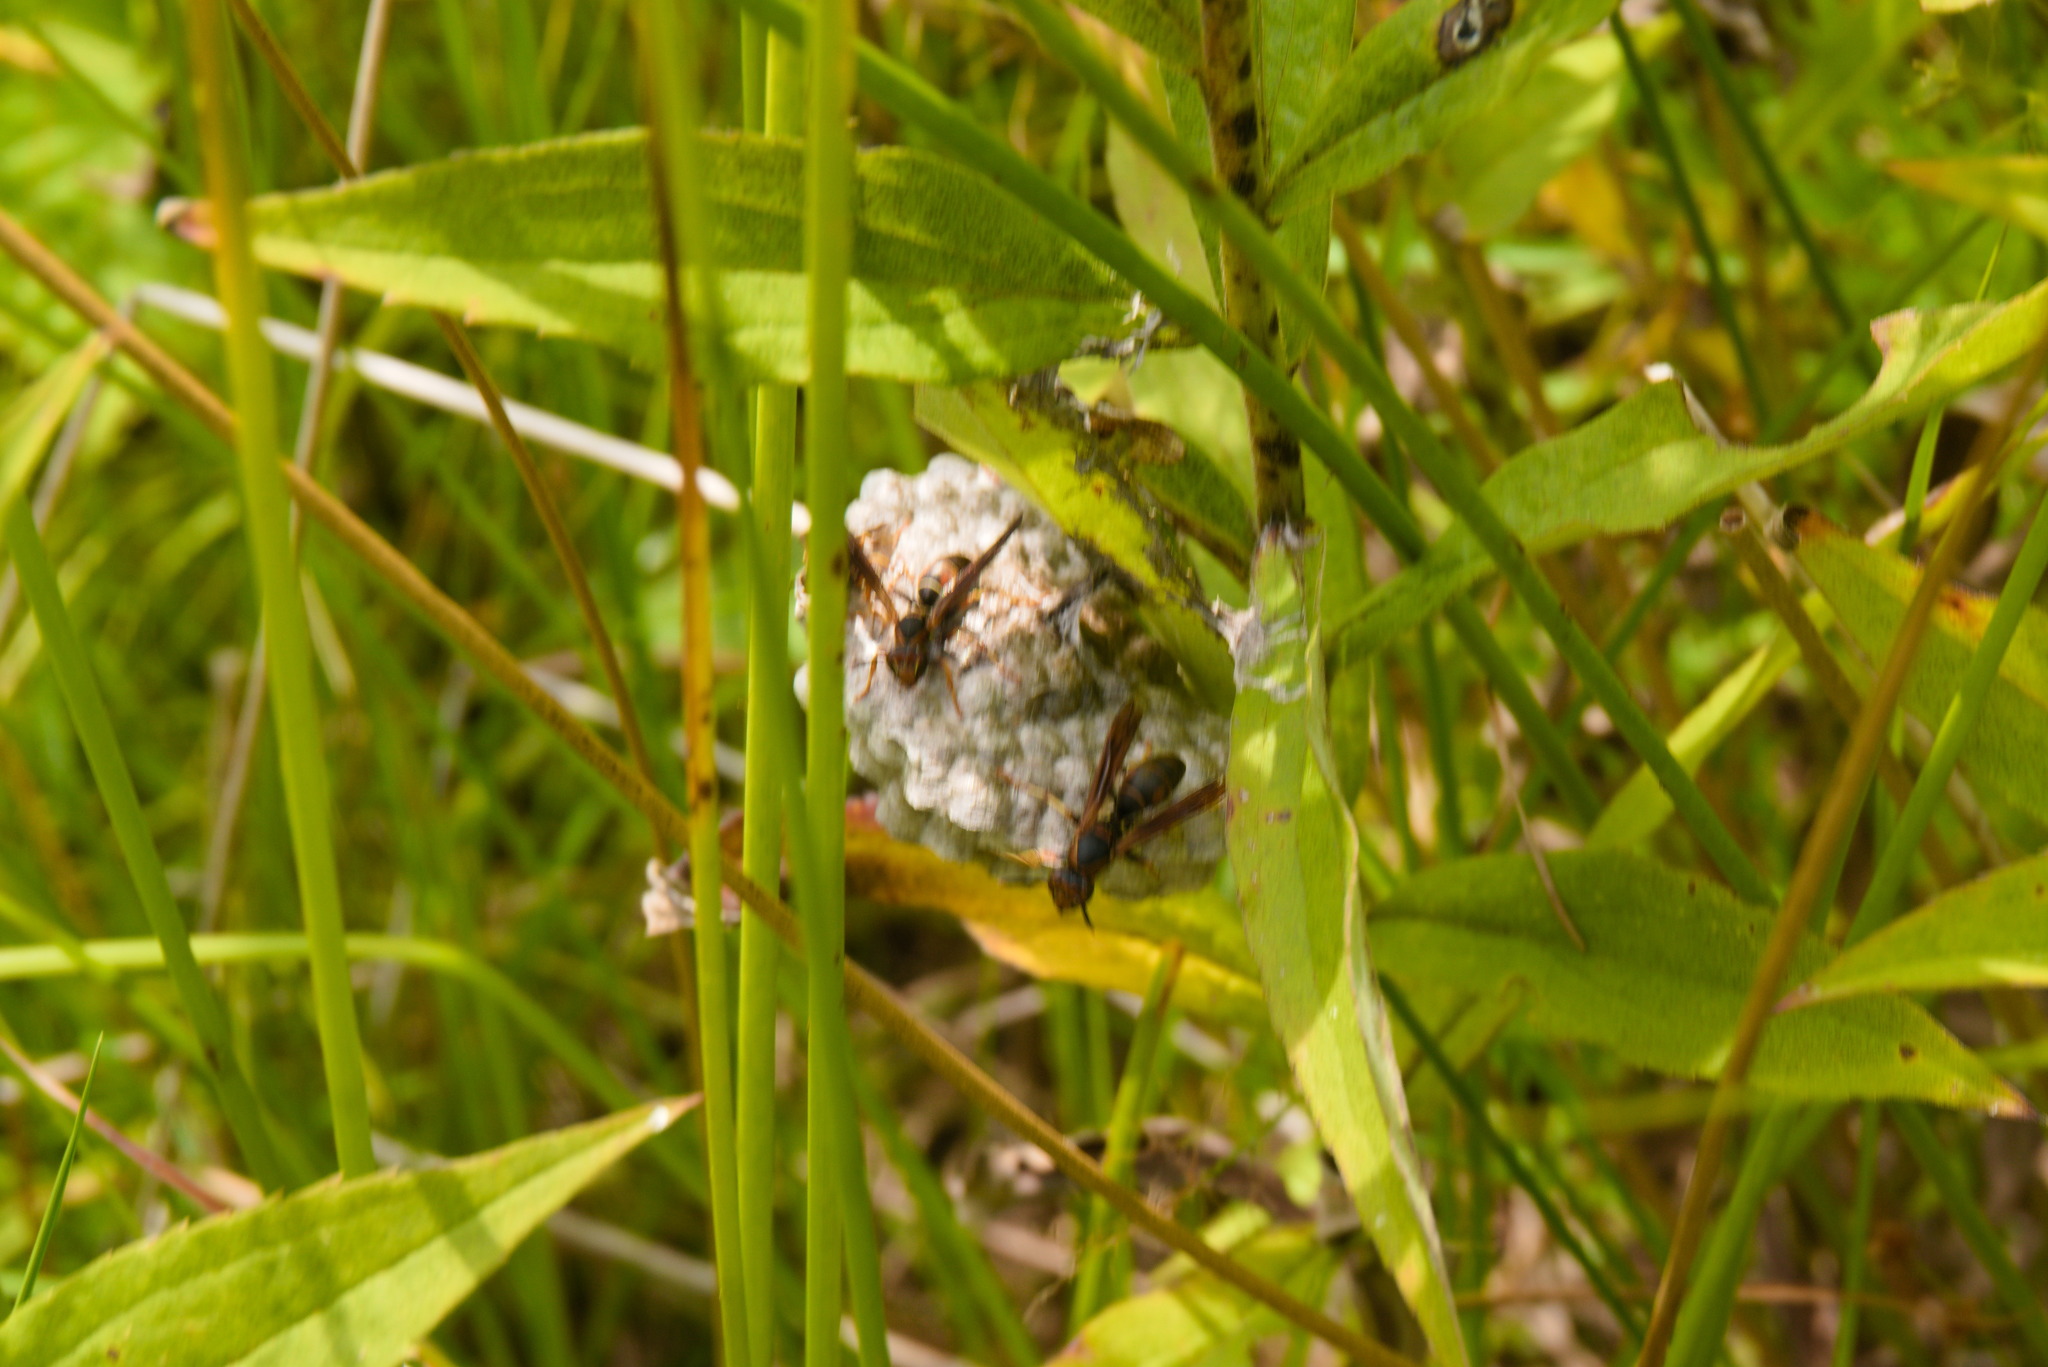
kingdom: Animalia
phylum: Arthropoda
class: Insecta
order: Hymenoptera
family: Eumenidae
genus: Polistes
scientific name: Polistes fuscatus
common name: Dark paper wasp
